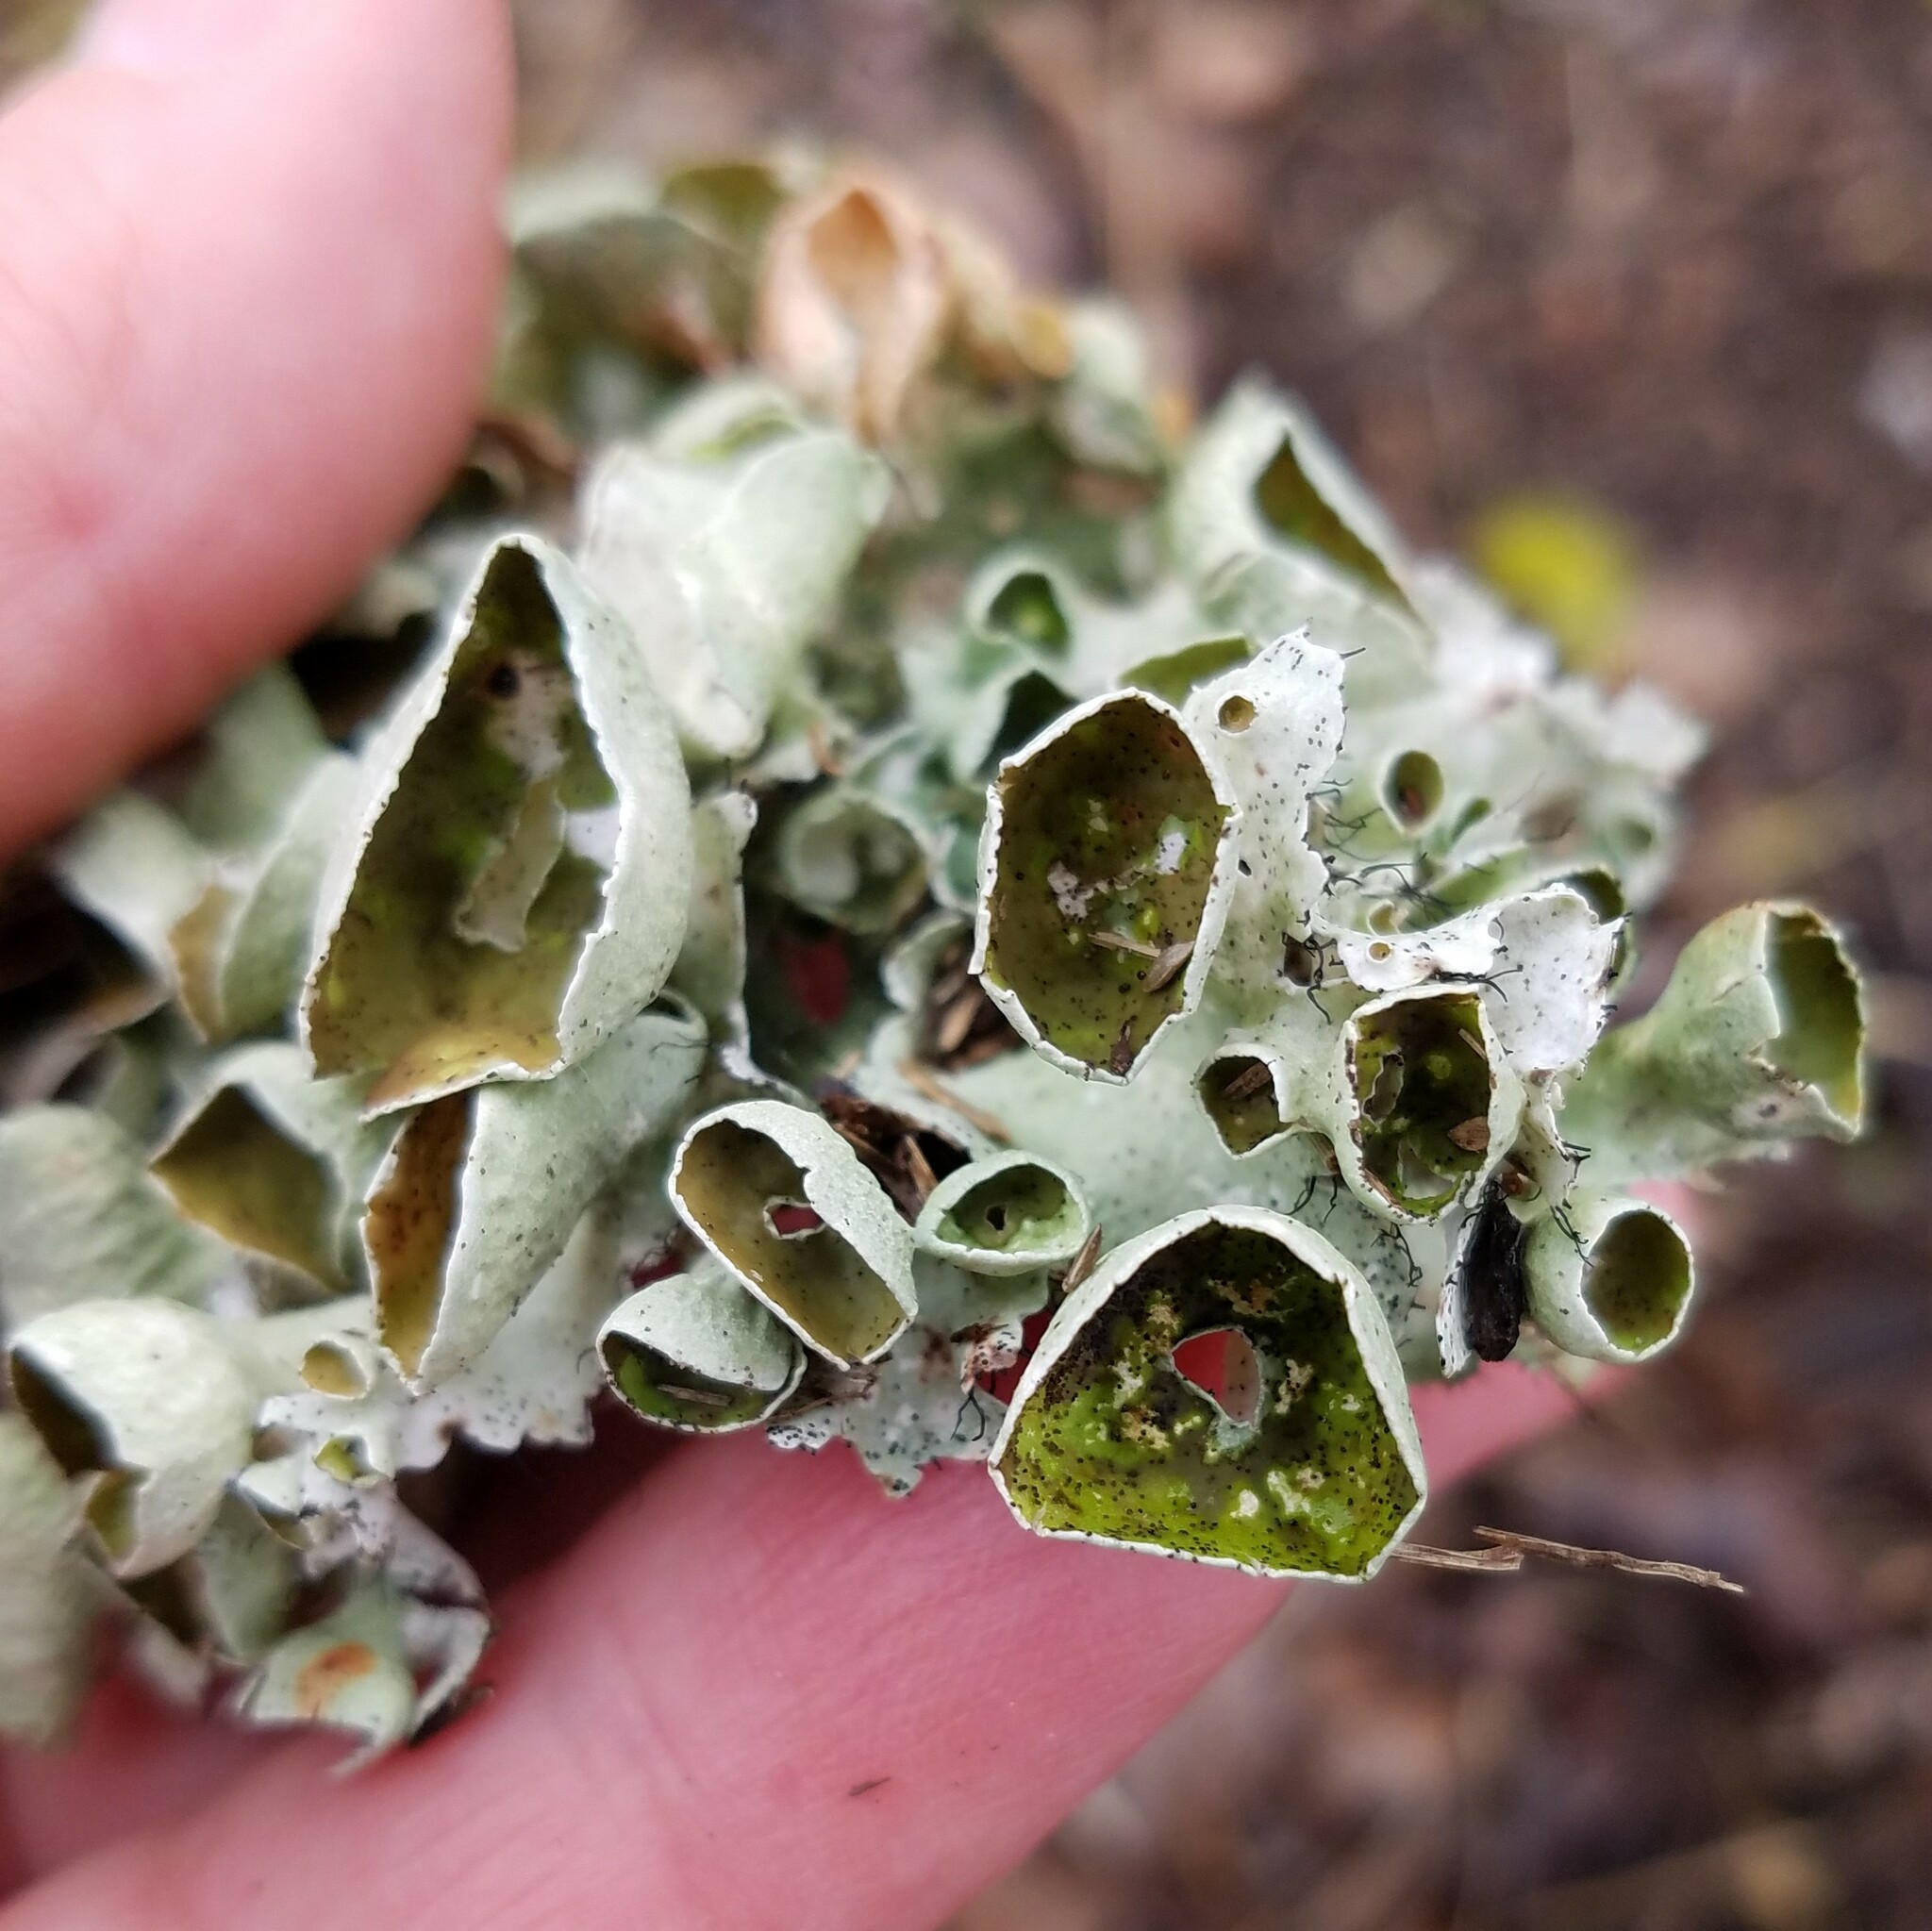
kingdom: Fungi
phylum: Ascomycota
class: Lecanoromycetes
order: Lecanorales
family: Parmeliaceae
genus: Parmotrema
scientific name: Parmotrema perforatum
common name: Perforated ruffle lichen
